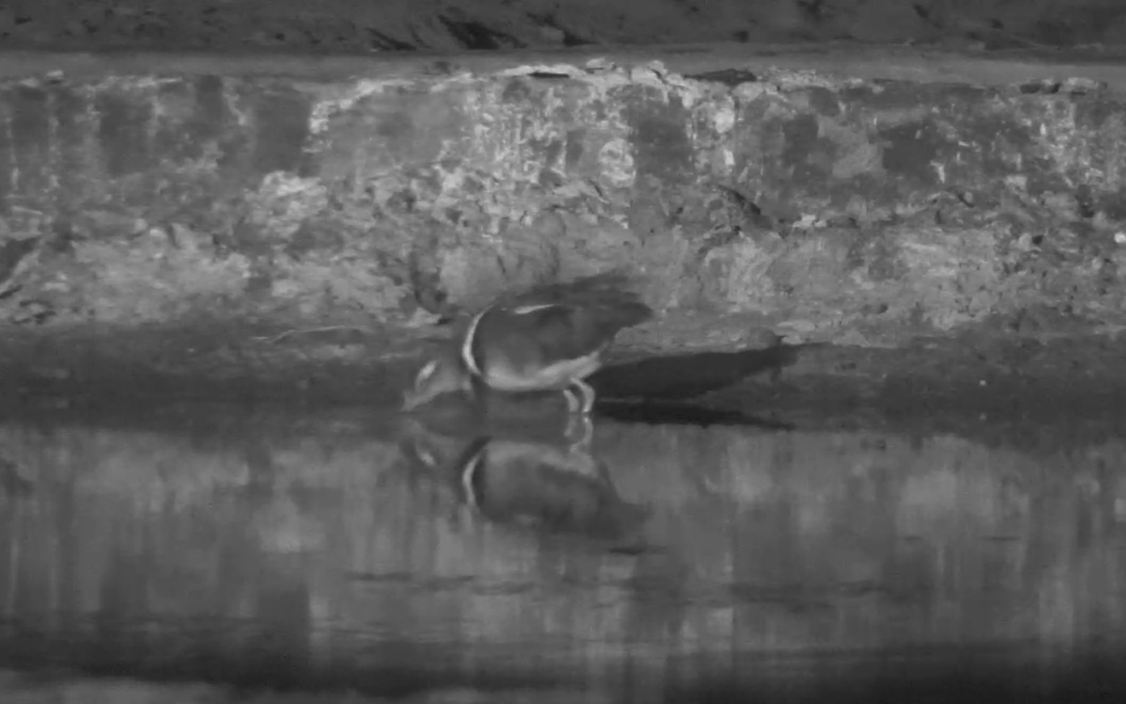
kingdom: Animalia
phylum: Chordata
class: Aves
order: Charadriiformes
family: Rostratulidae
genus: Rostratula
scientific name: Rostratula benghalensis
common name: Greater painted-snipe
